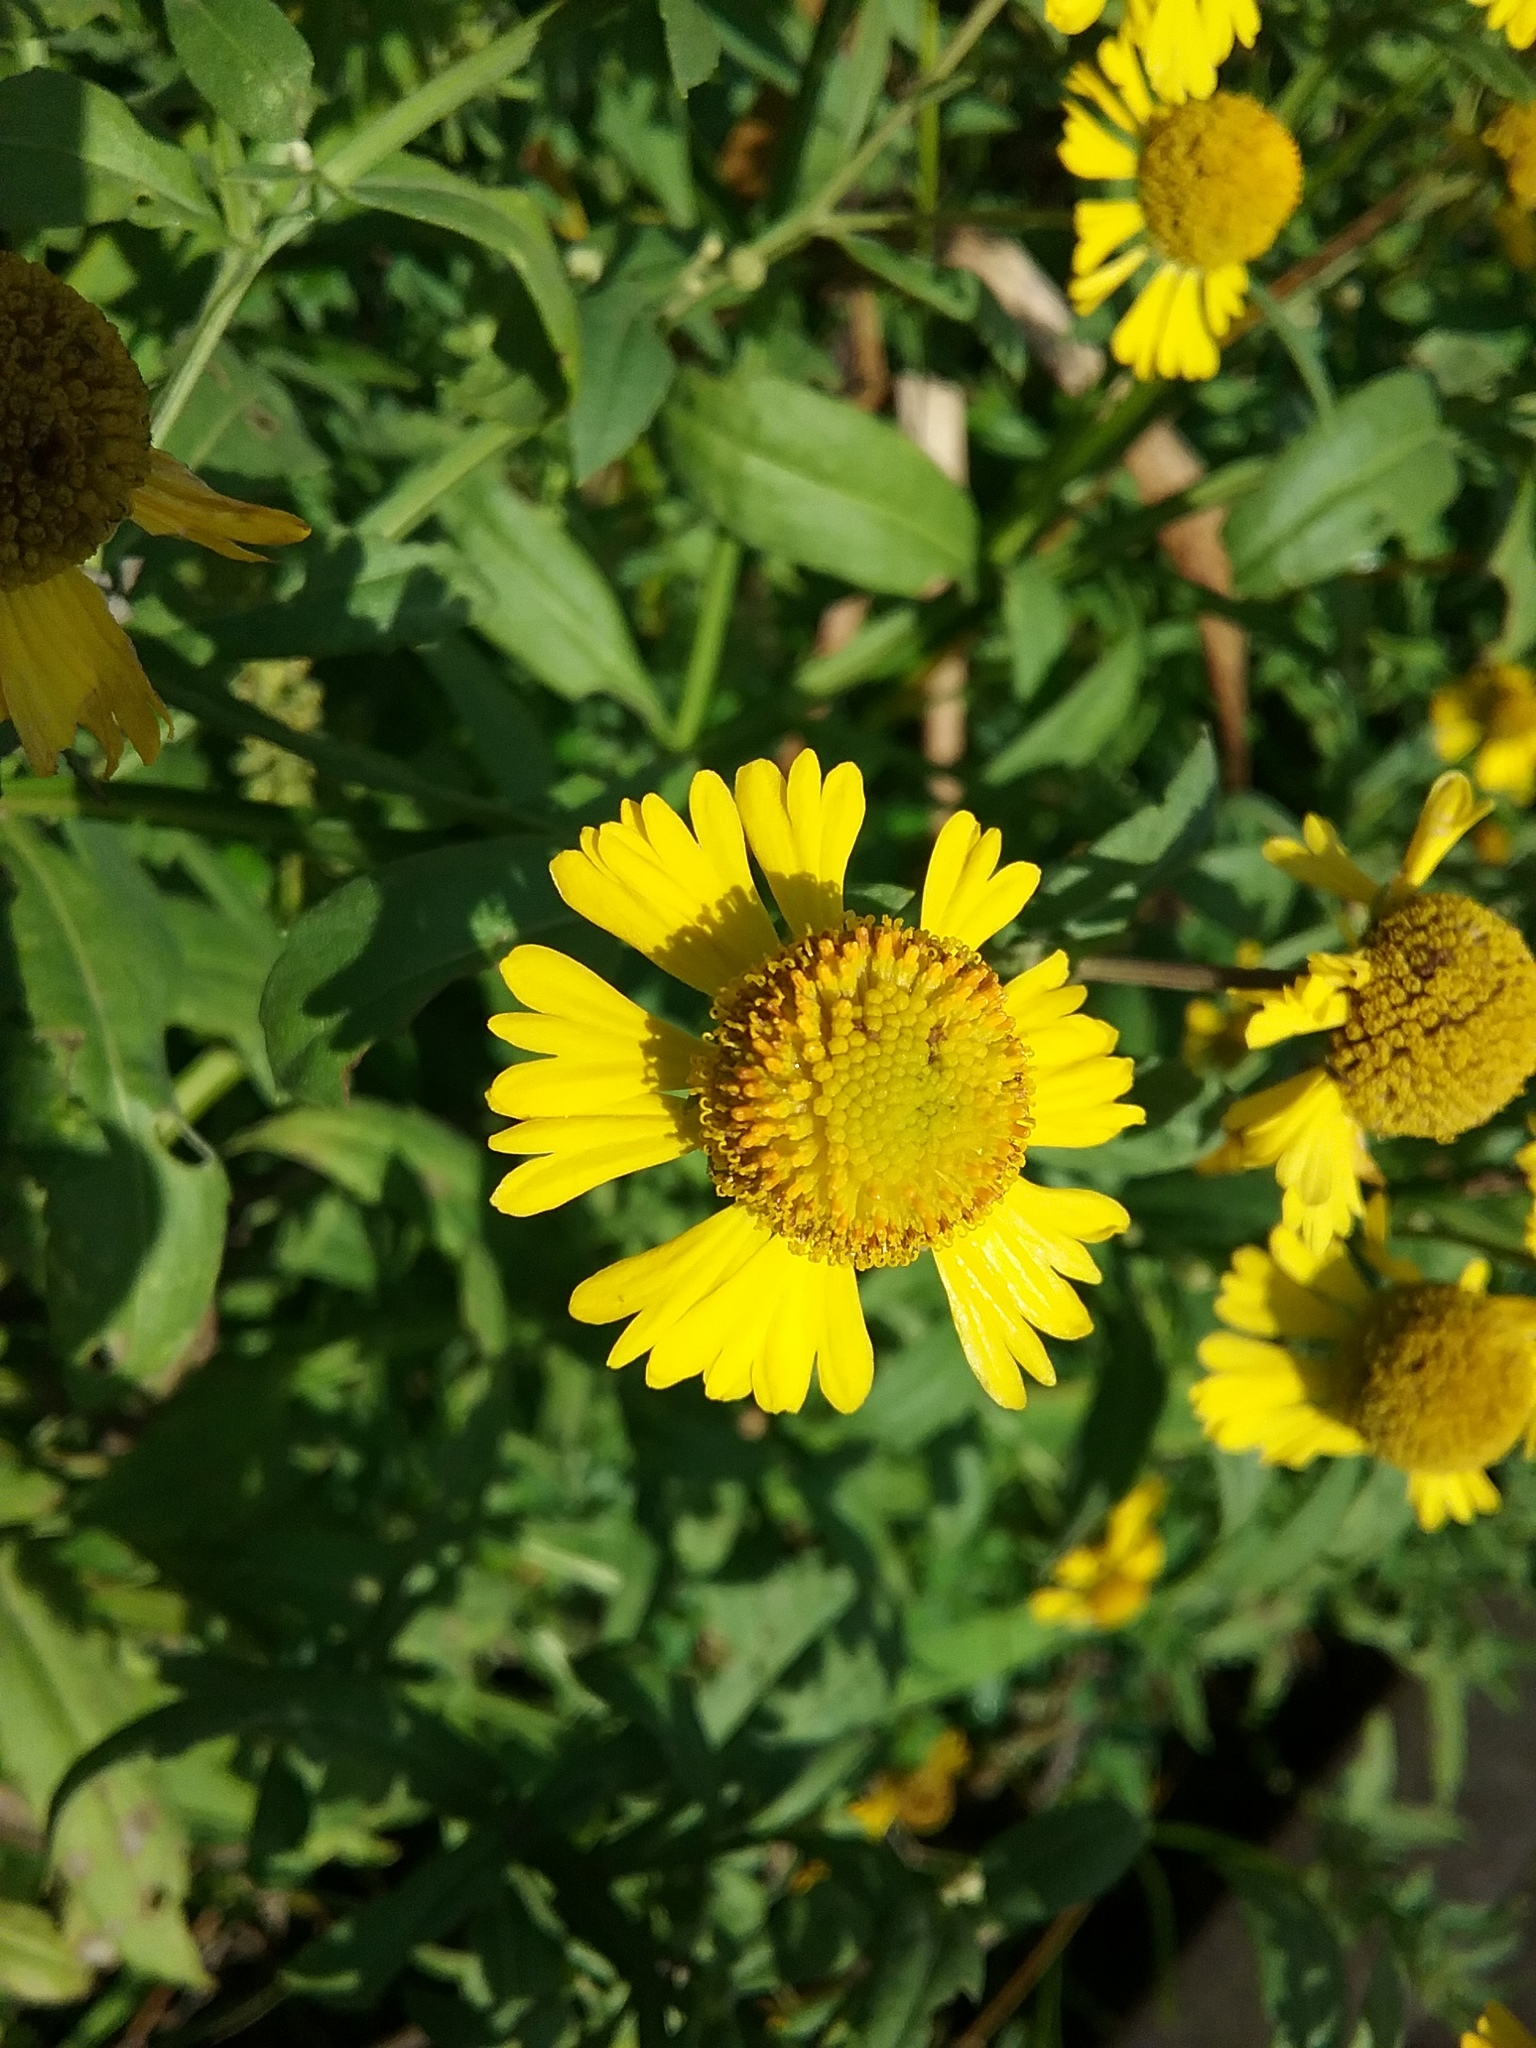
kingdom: Plantae
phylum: Tracheophyta
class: Magnoliopsida
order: Asterales
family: Asteraceae
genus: Helenium
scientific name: Helenium autumnale
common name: Sneezeweed
